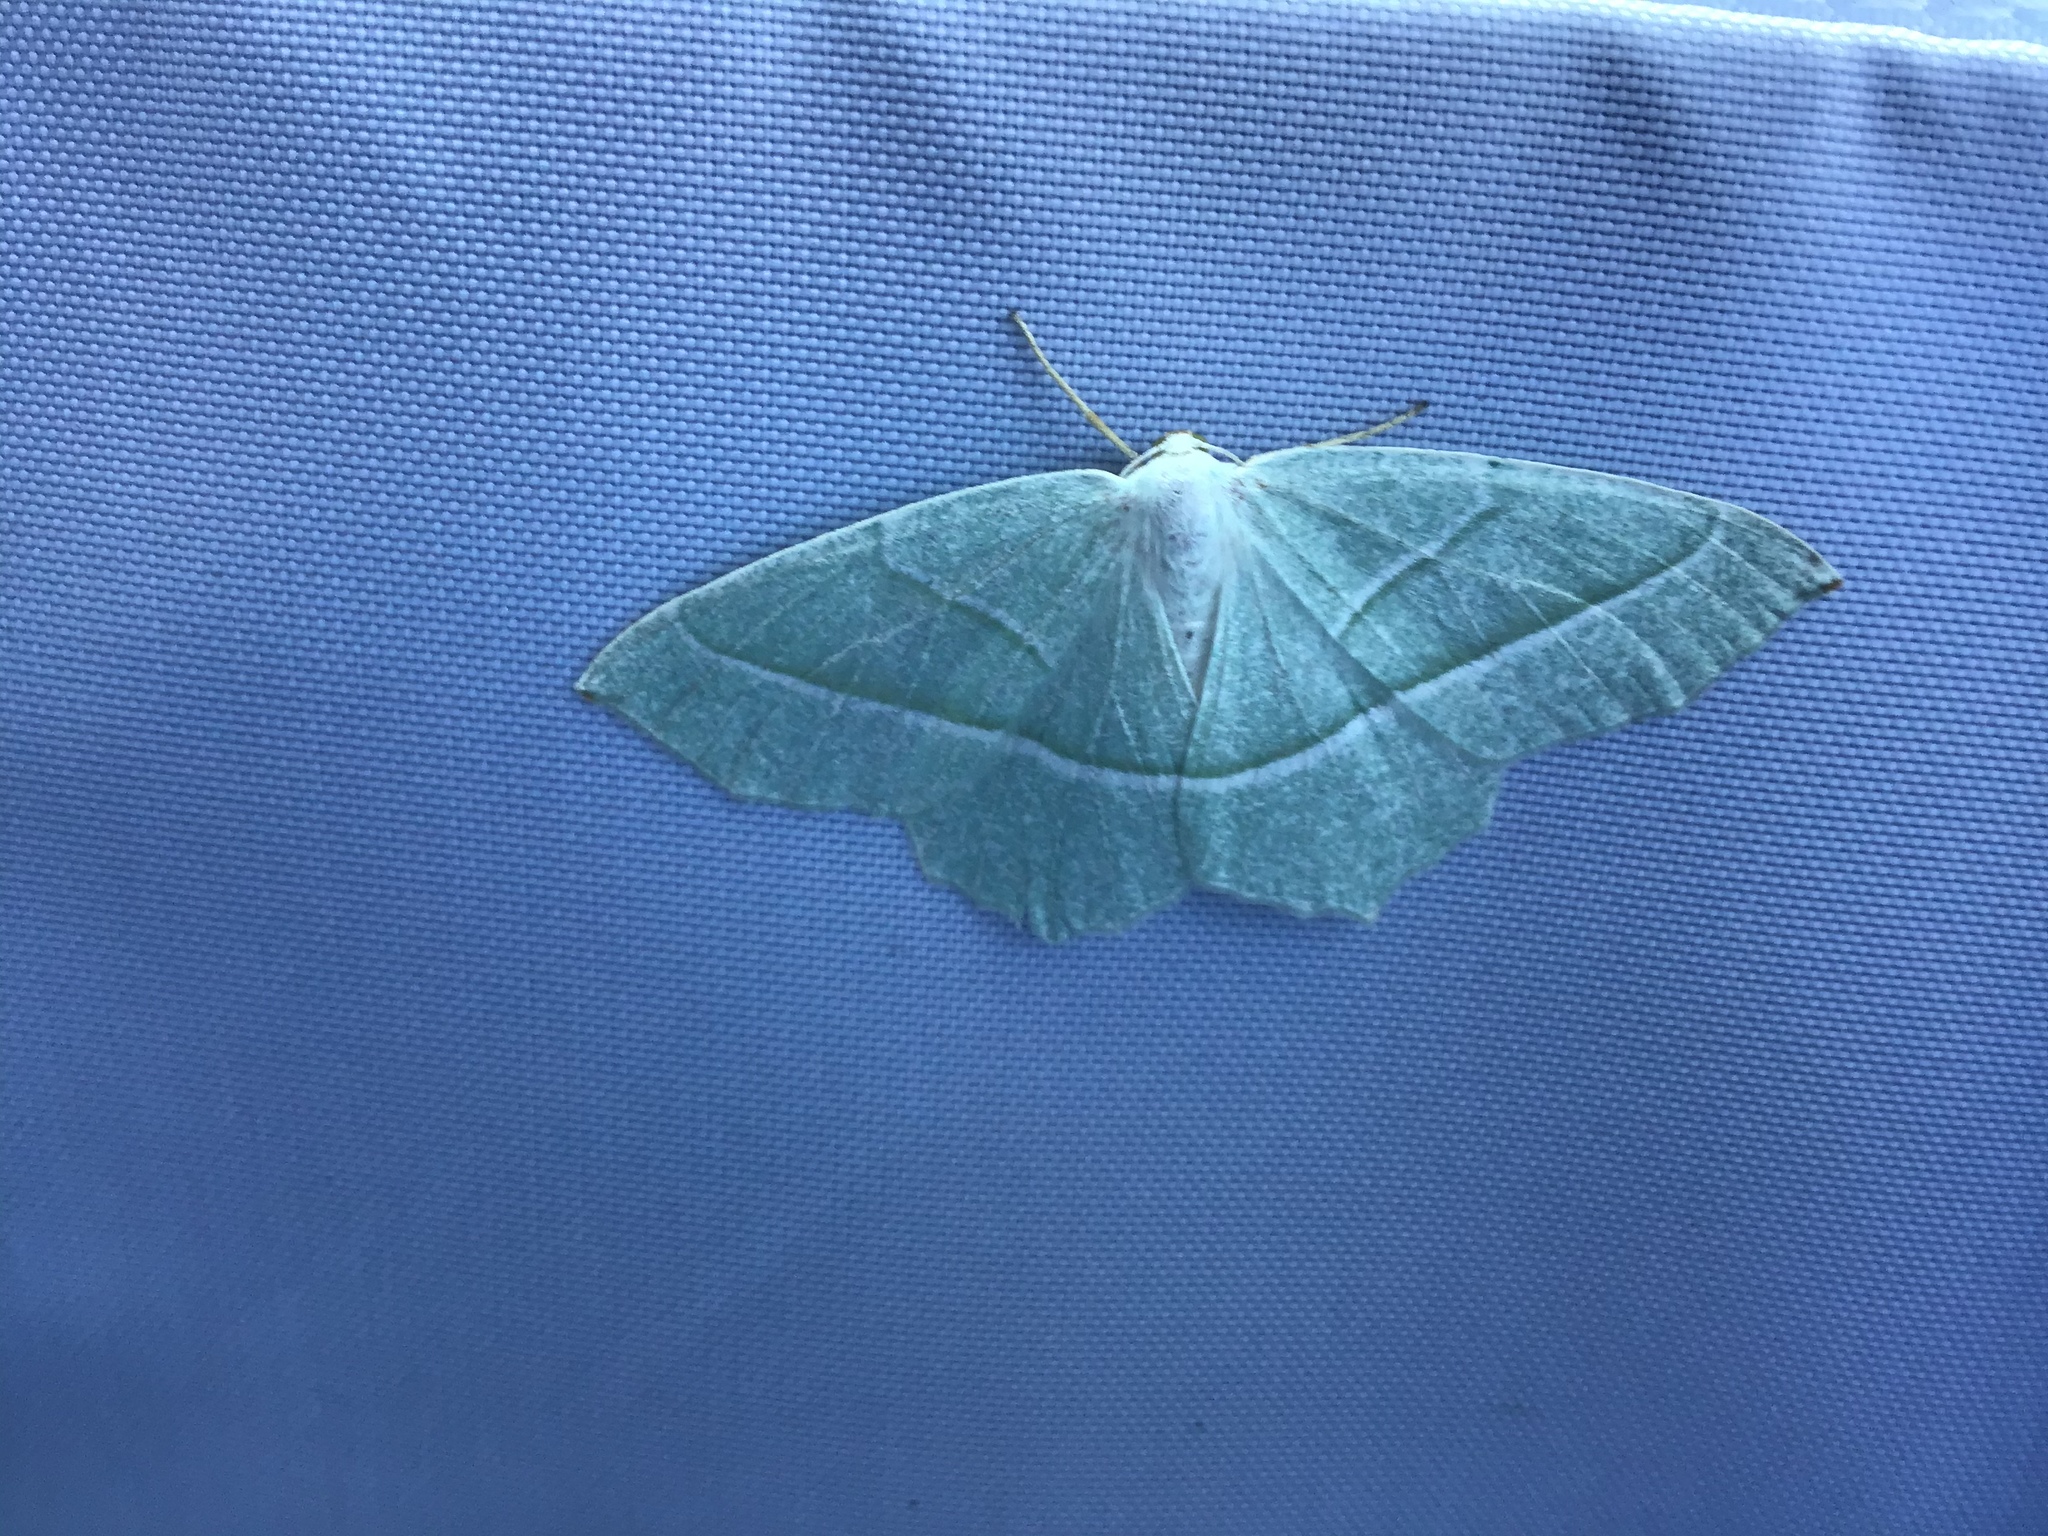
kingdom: Animalia
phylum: Arthropoda
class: Insecta
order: Lepidoptera
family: Geometridae
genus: Campaea
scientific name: Campaea margaritaria
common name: Light emerald
